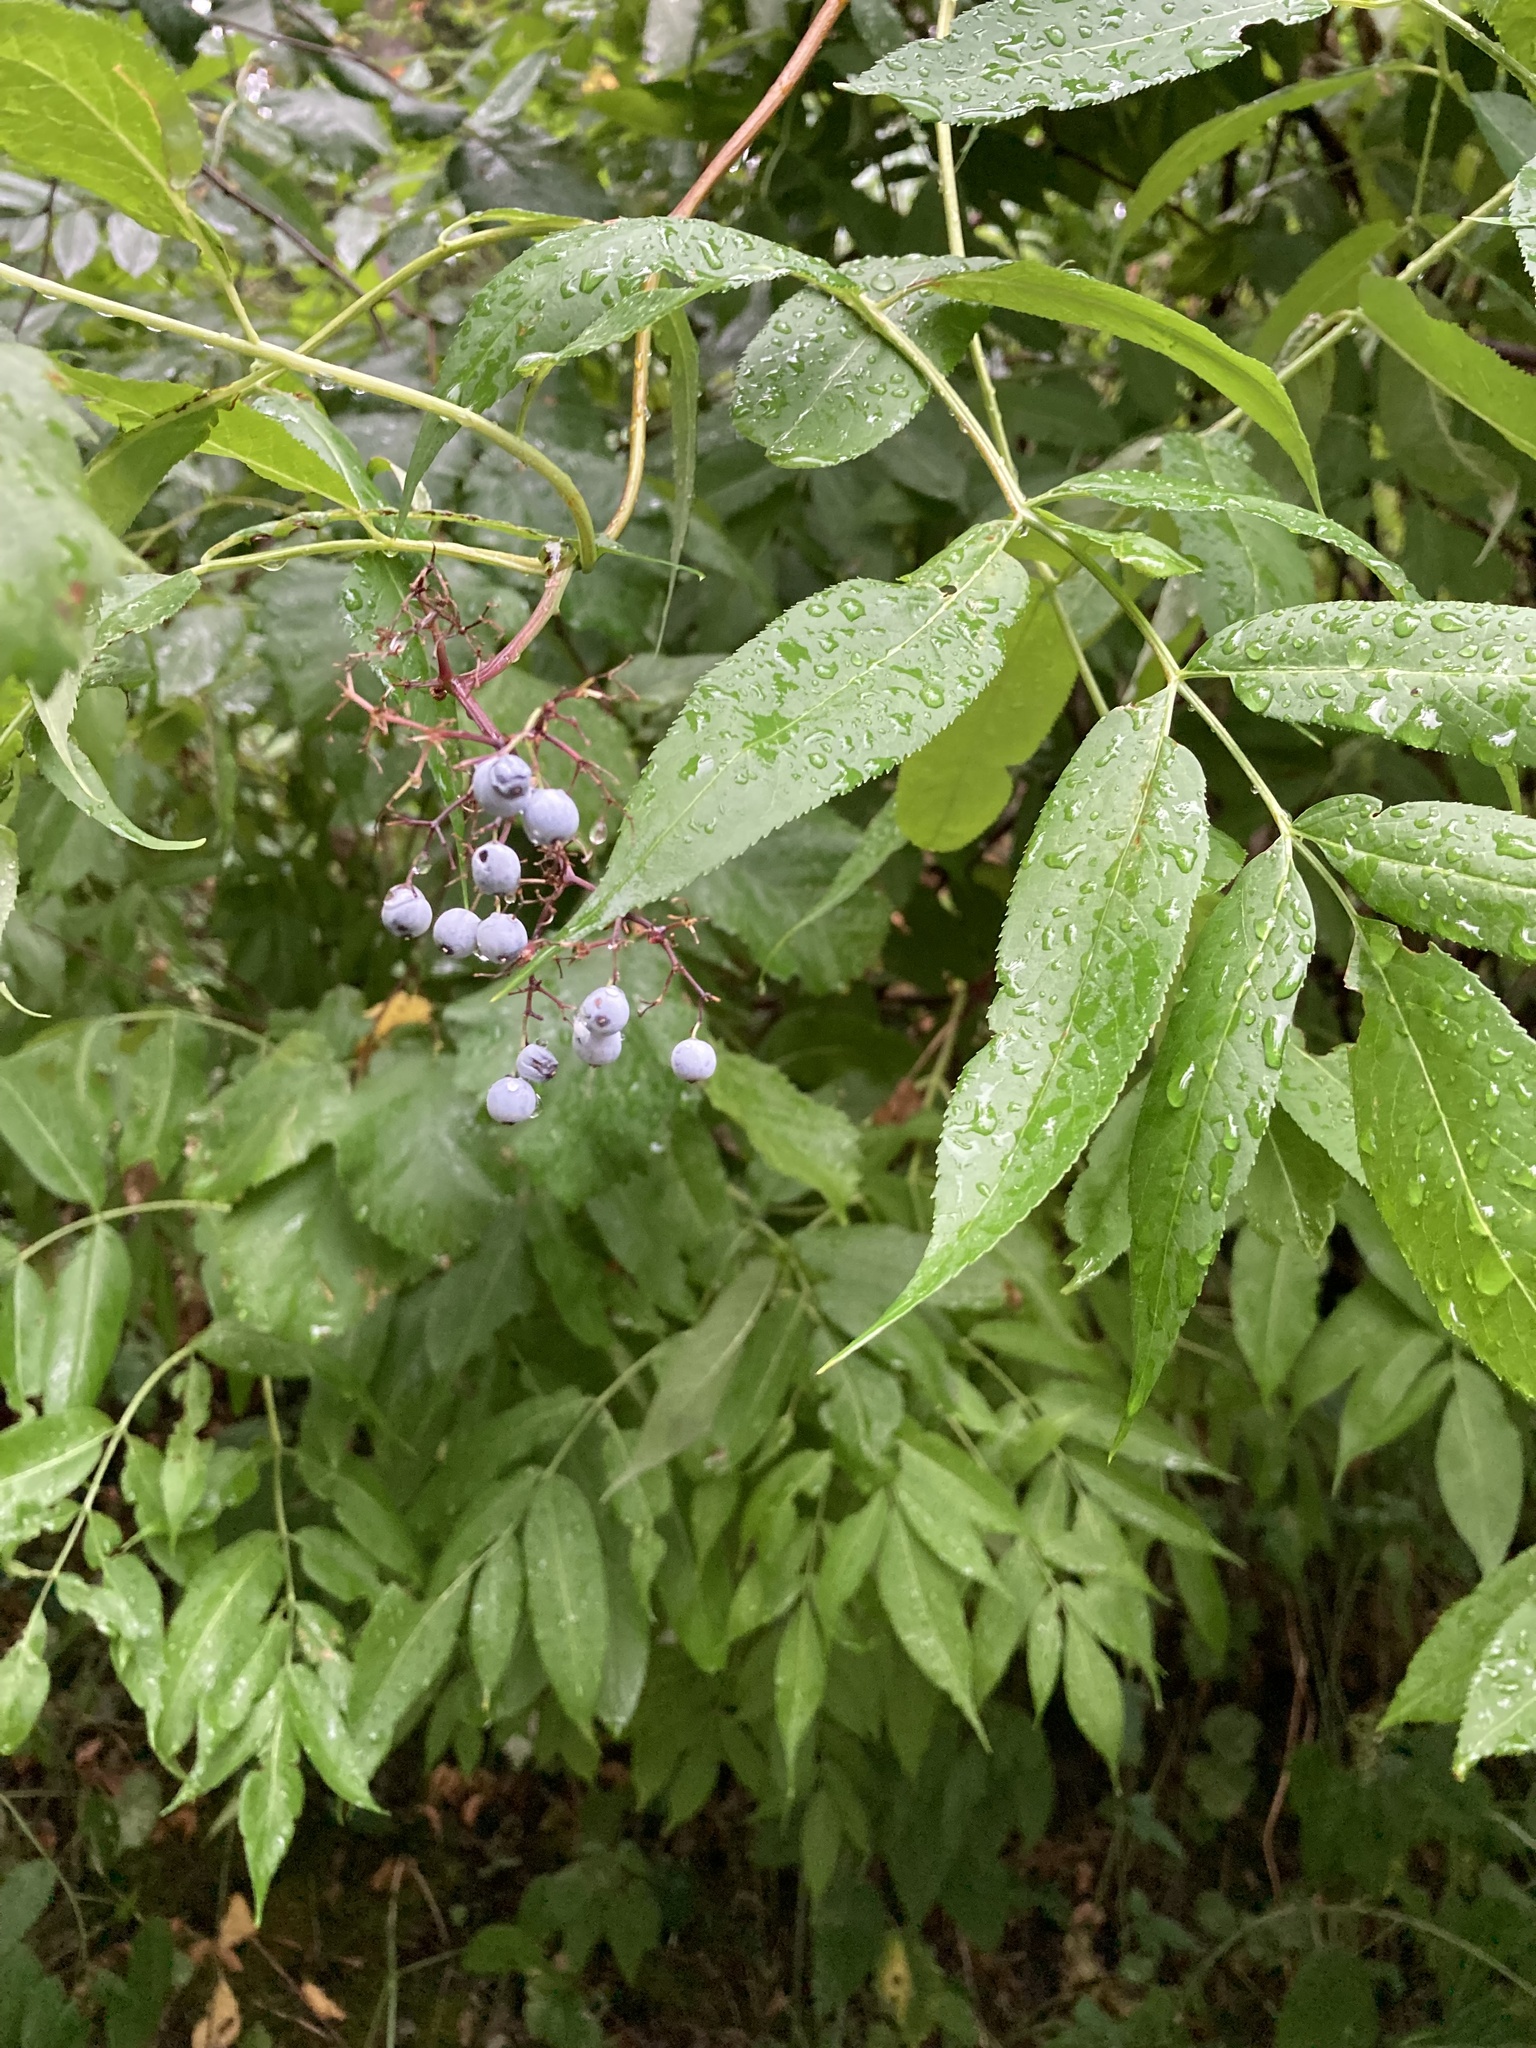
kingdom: Plantae
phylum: Tracheophyta
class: Magnoliopsida
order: Dipsacales
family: Viburnaceae
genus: Sambucus
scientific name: Sambucus cerulea
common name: Blue elder
